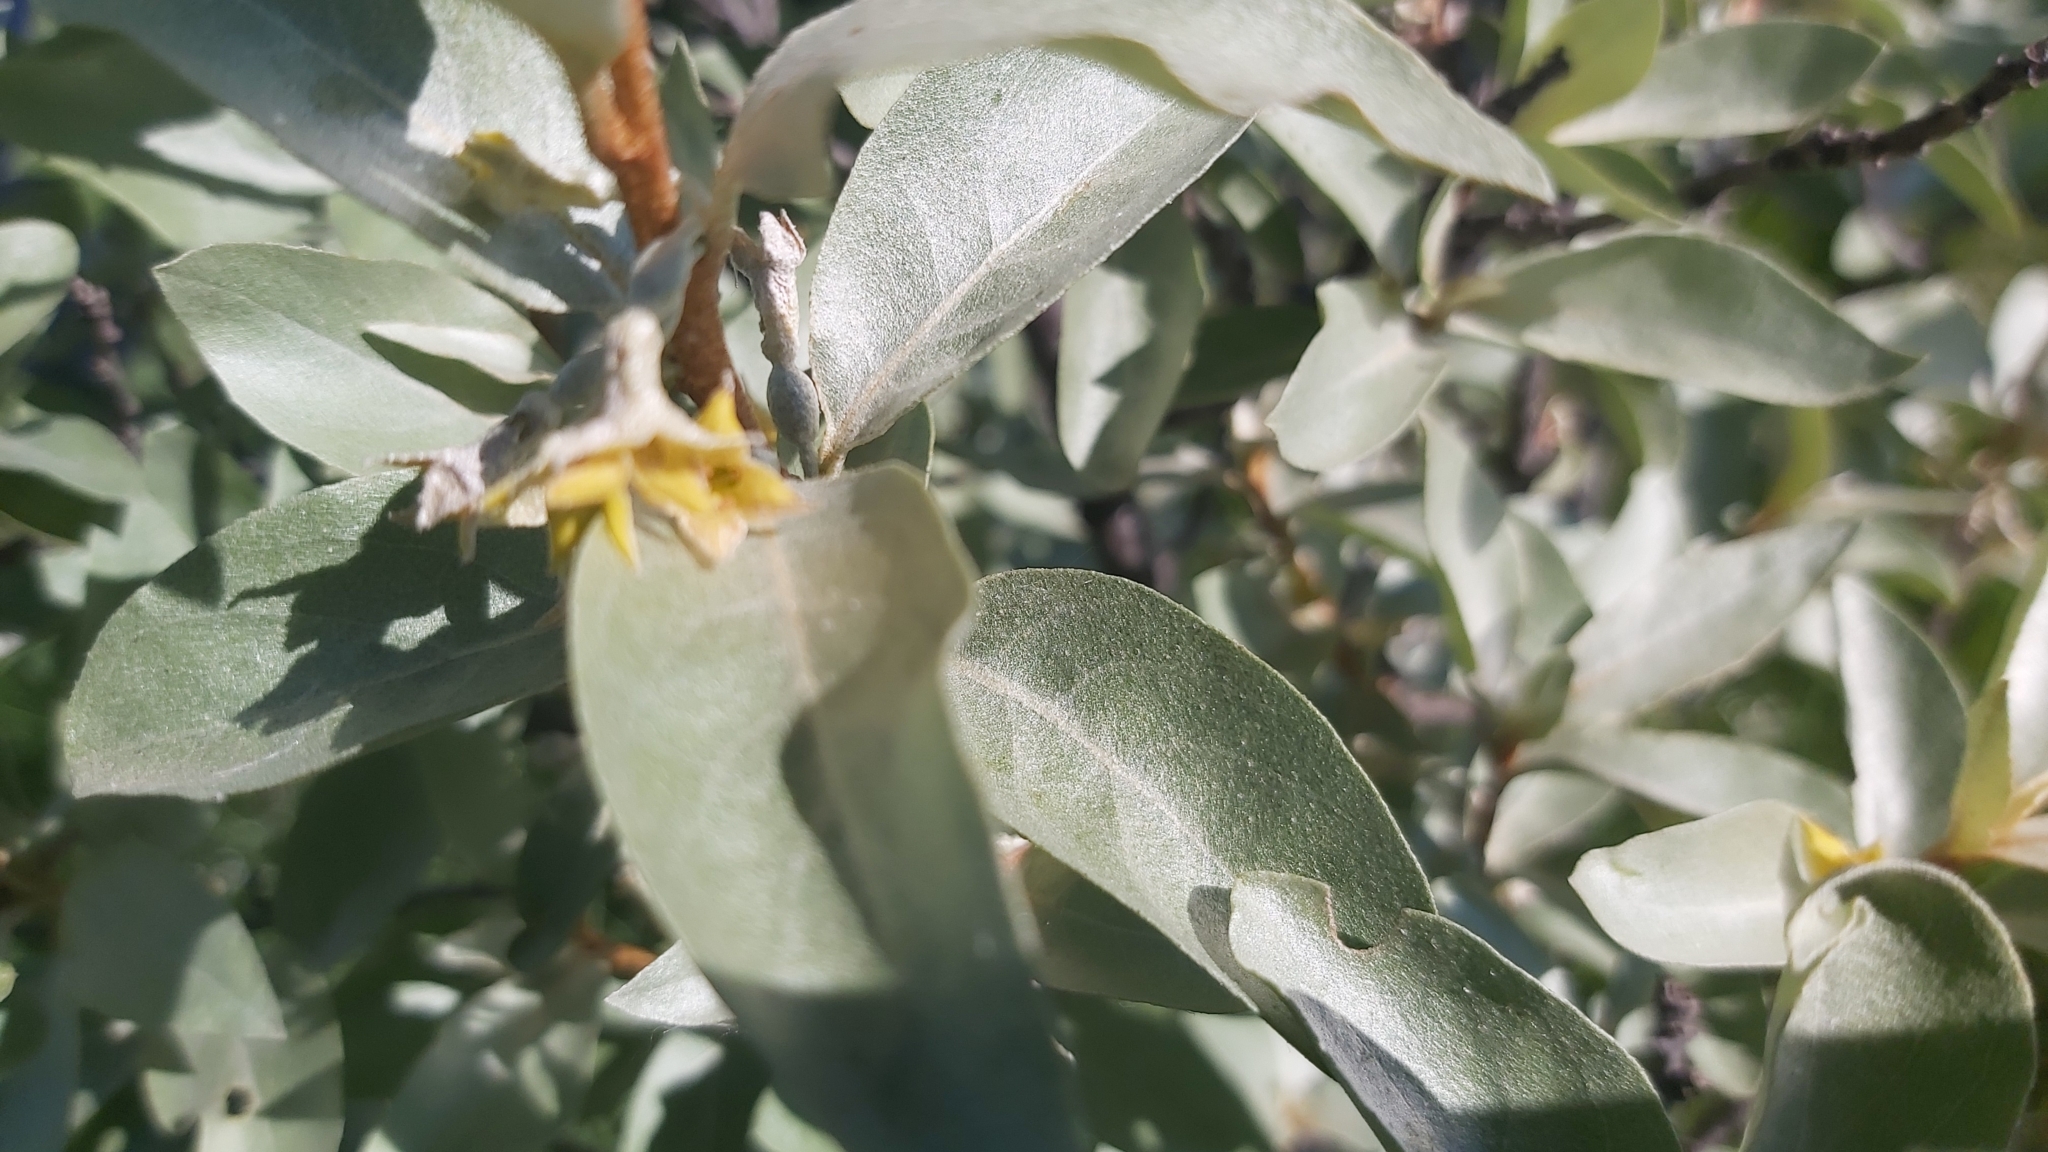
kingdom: Plantae
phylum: Tracheophyta
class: Magnoliopsida
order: Rosales
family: Elaeagnaceae
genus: Elaeagnus
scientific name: Elaeagnus commutata
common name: Silverberry
